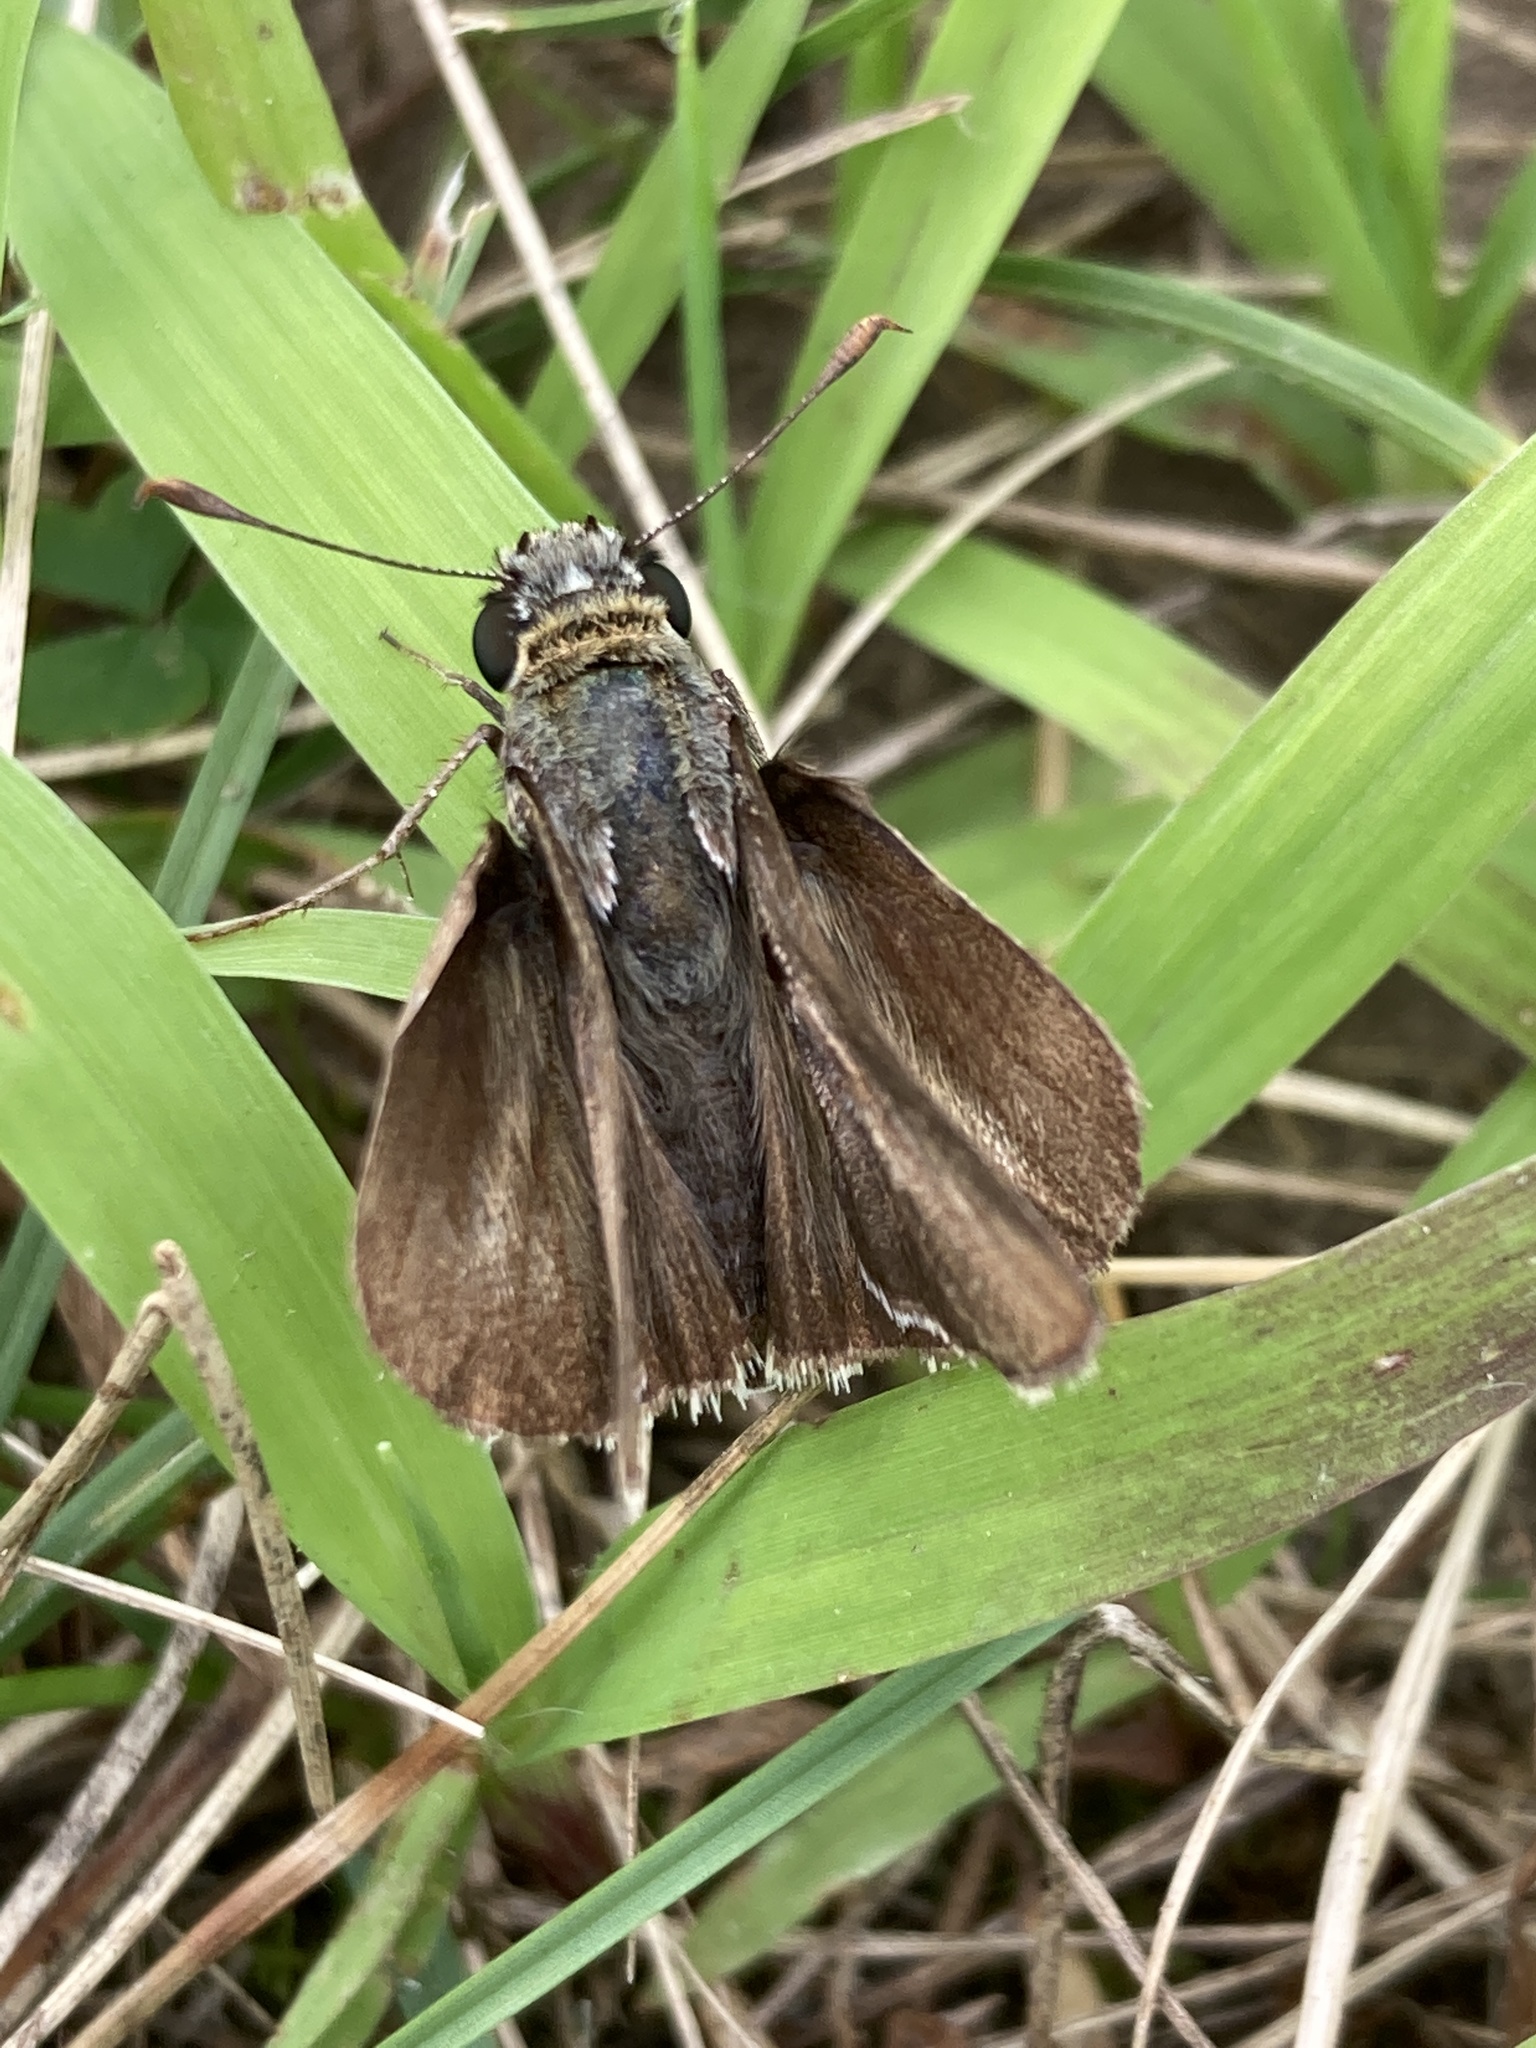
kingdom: Animalia
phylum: Arthropoda
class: Insecta
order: Lepidoptera
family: Hesperiidae
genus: Euphyes
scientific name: Euphyes vestris
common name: Dun skipper
